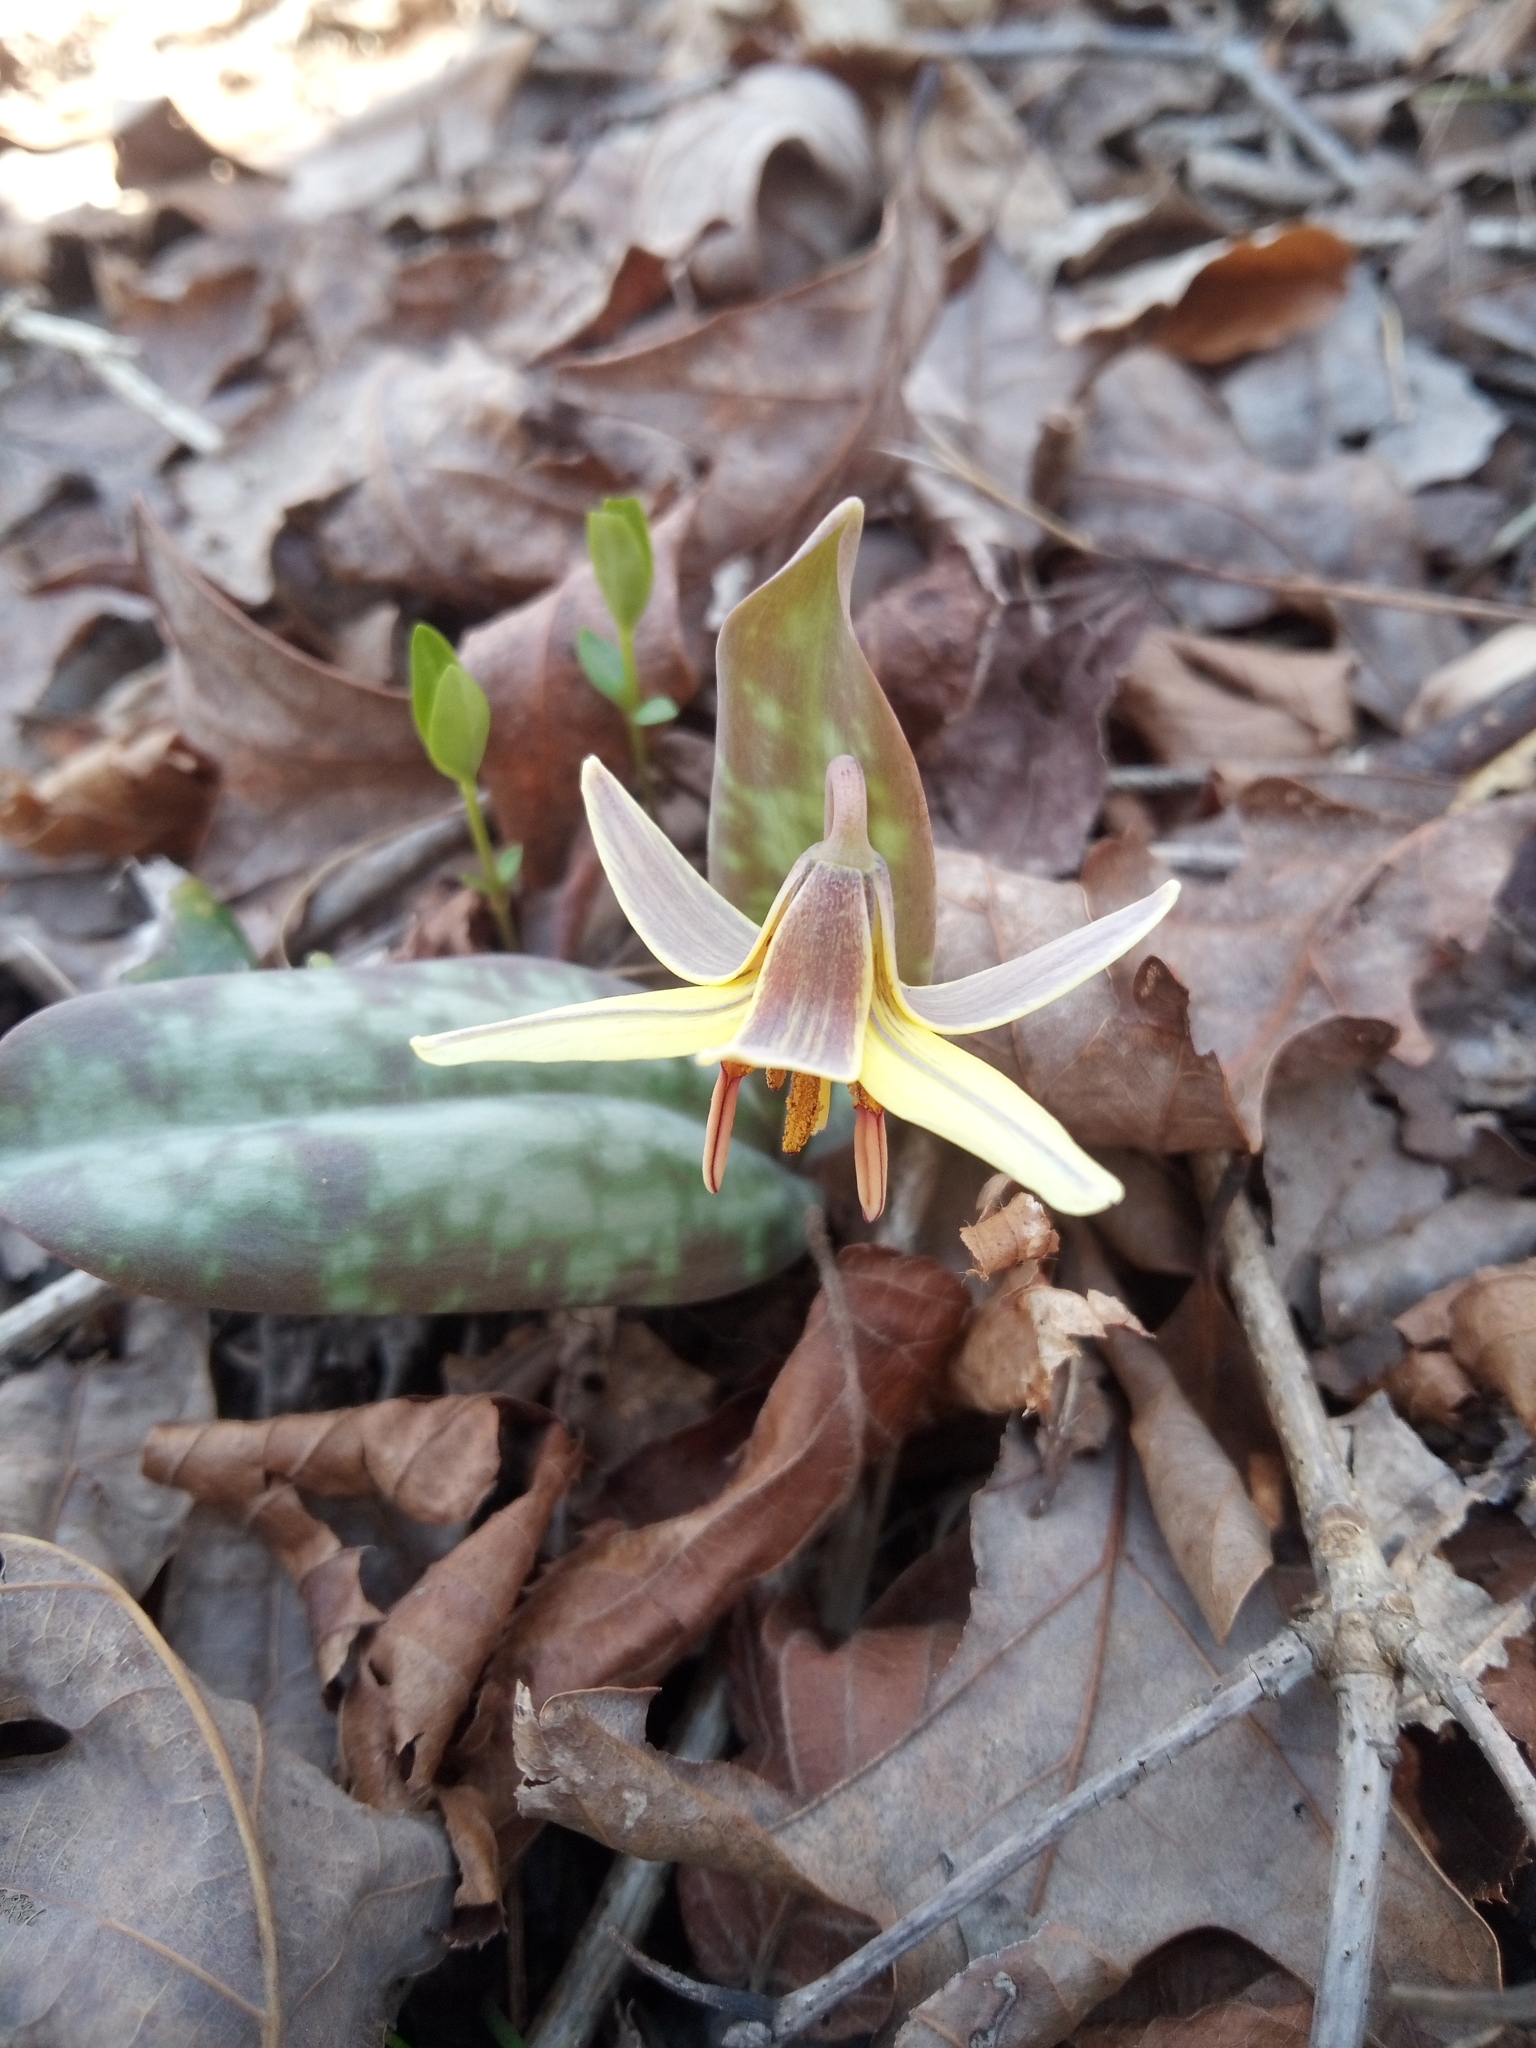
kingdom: Plantae
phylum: Tracheophyta
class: Liliopsida
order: Liliales
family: Liliaceae
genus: Erythronium
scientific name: Erythronium umbilicatum
